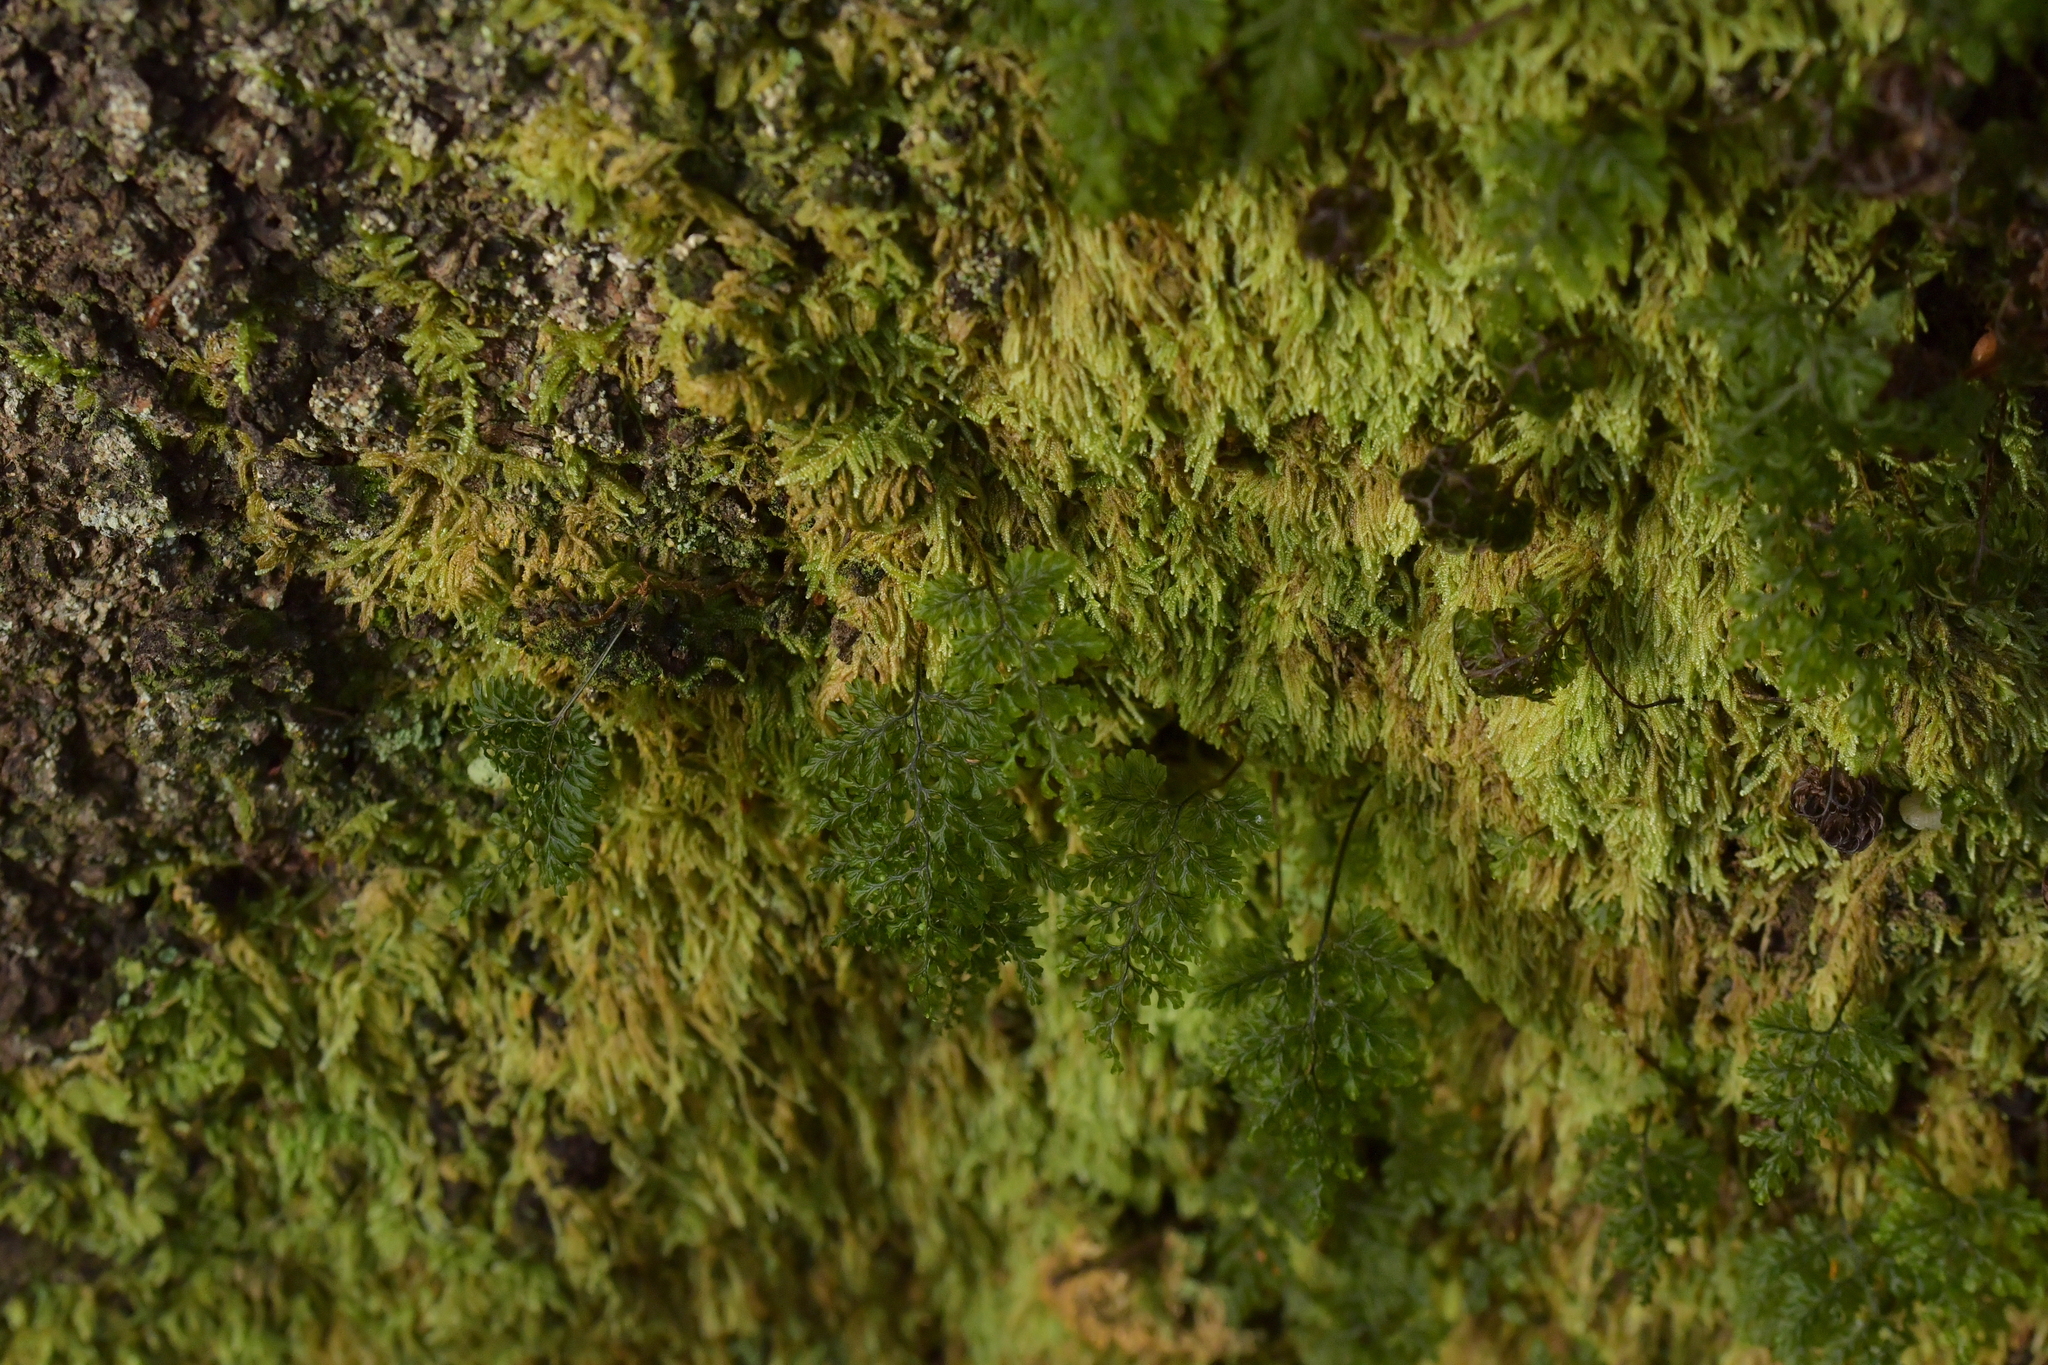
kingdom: Plantae
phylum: Tracheophyta
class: Polypodiopsida
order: Hymenophyllales
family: Hymenophyllaceae
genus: Hymenophyllum
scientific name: Hymenophyllum villosum
